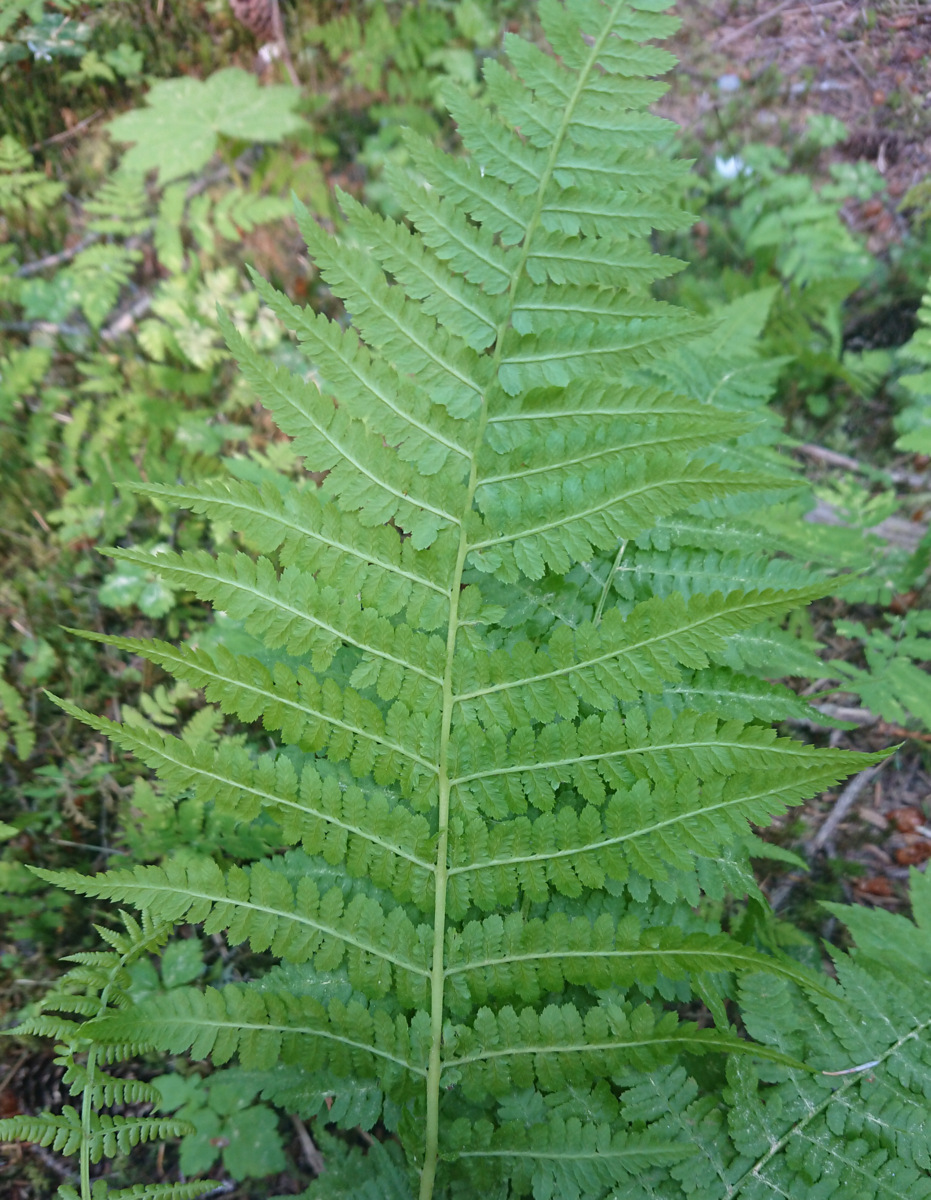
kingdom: Plantae
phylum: Tracheophyta
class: Polypodiopsida
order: Polypodiales
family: Athyriaceae
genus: Athyrium
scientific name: Athyrium filix-femina
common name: Lady fern
